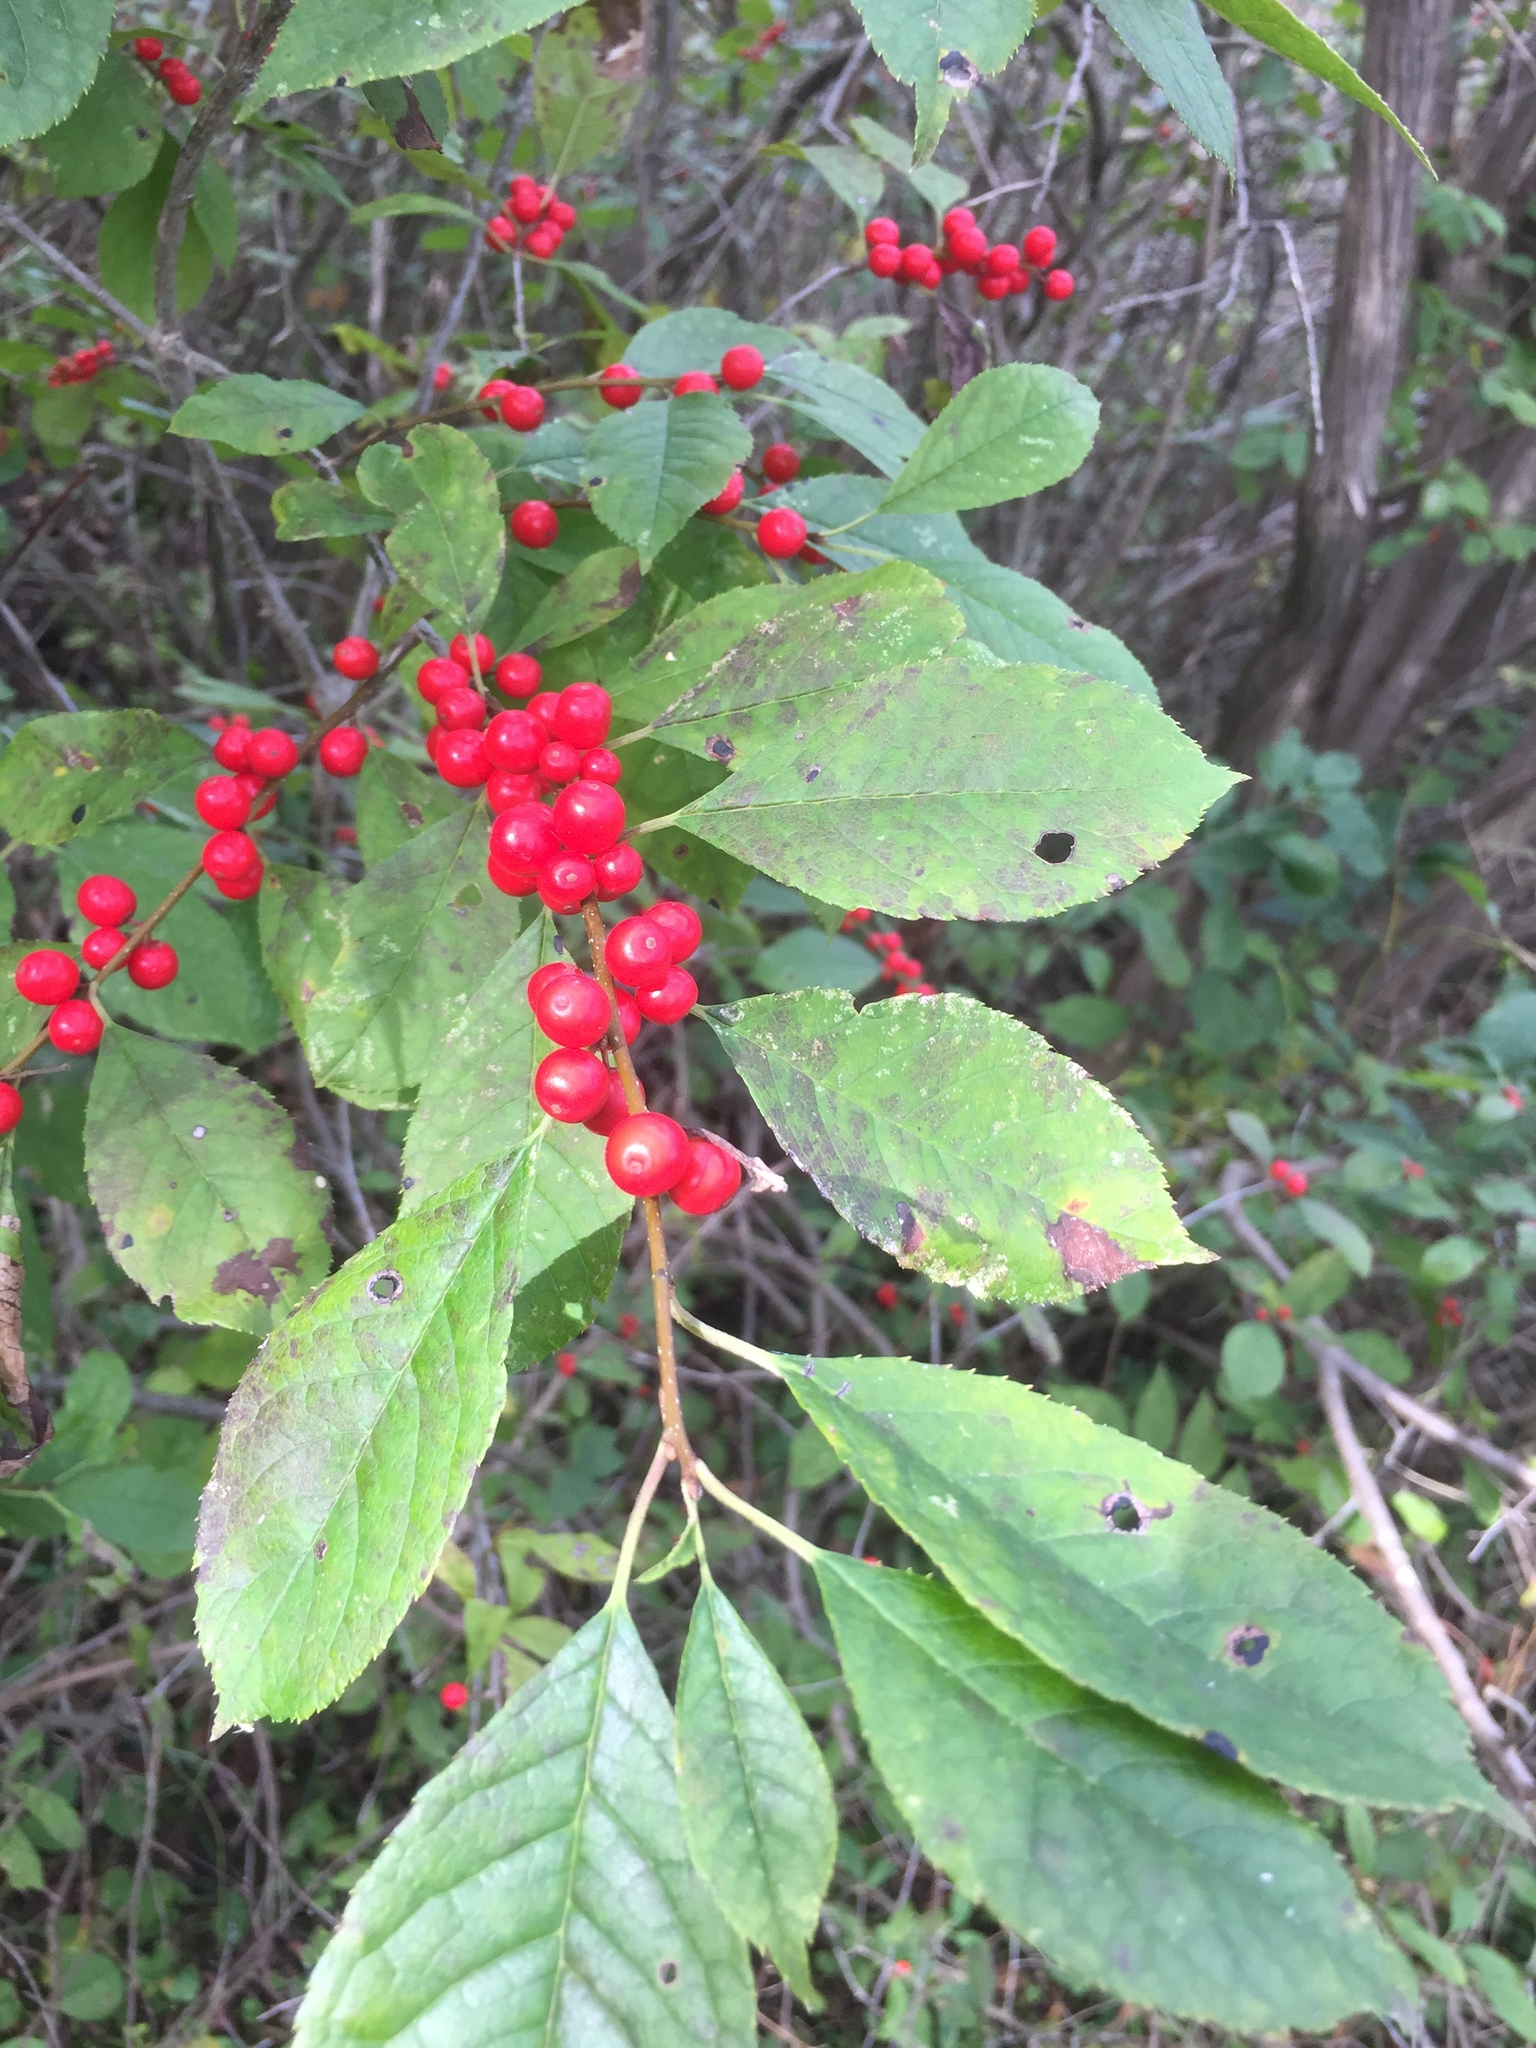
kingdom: Plantae
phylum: Tracheophyta
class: Magnoliopsida
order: Aquifoliales
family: Aquifoliaceae
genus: Ilex
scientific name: Ilex verticillata
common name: Virginia winterberry
